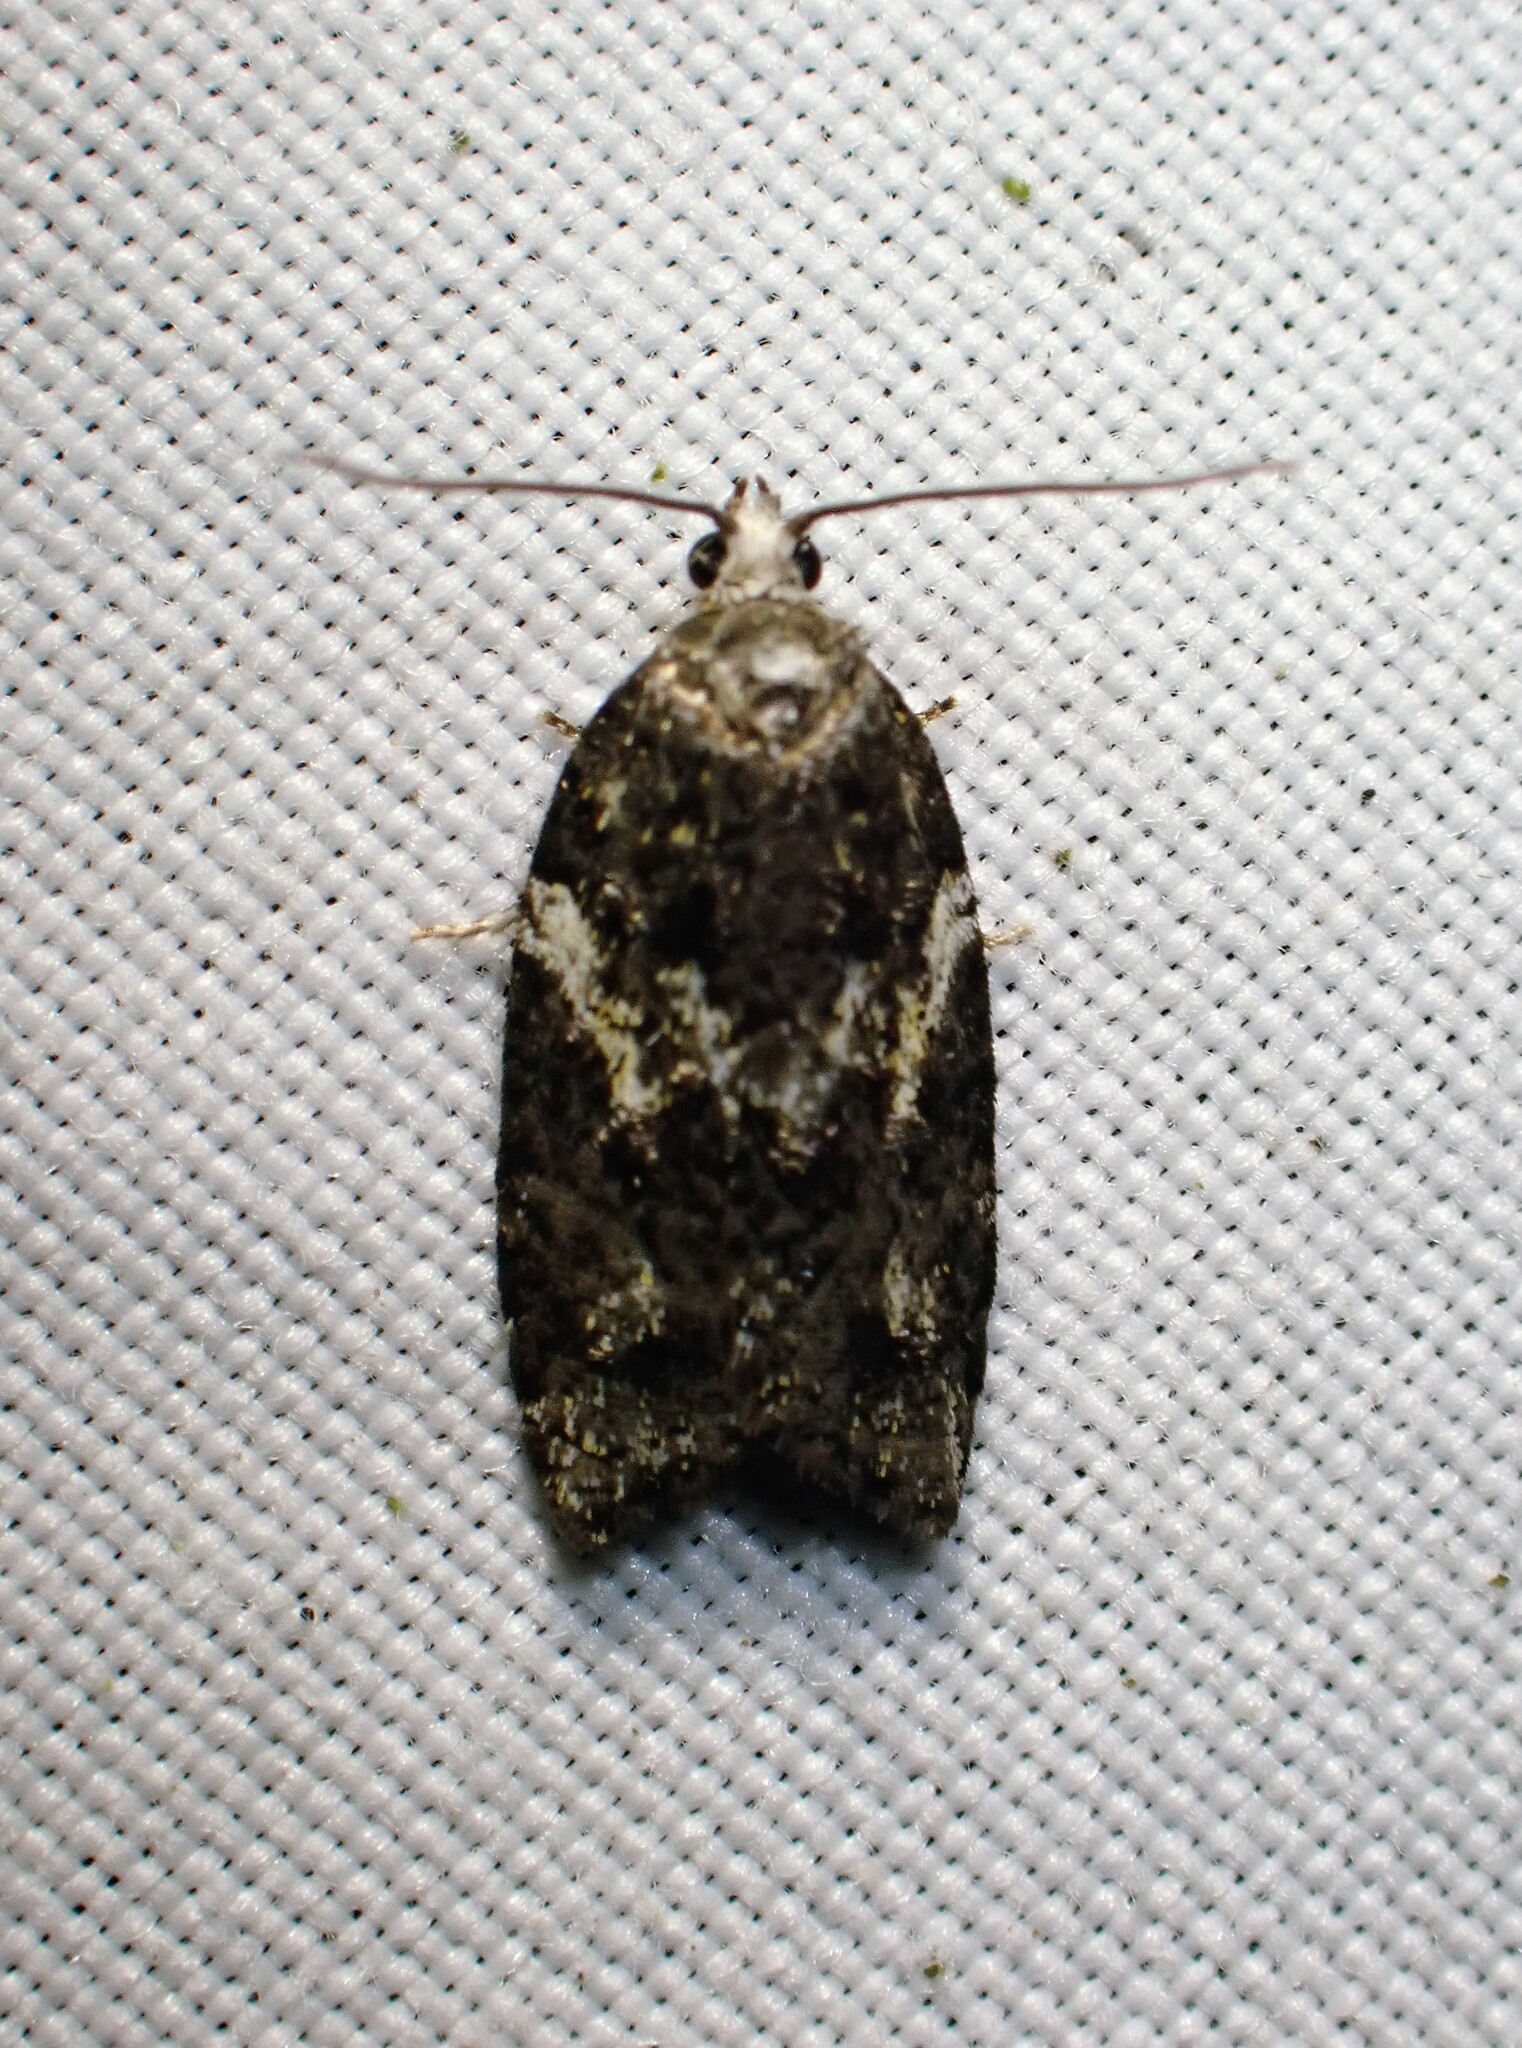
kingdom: Animalia
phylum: Arthropoda
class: Insecta
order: Lepidoptera
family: Tortricidae
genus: Acleris
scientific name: Acleris variana
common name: Eastern black-headed budworm moth
